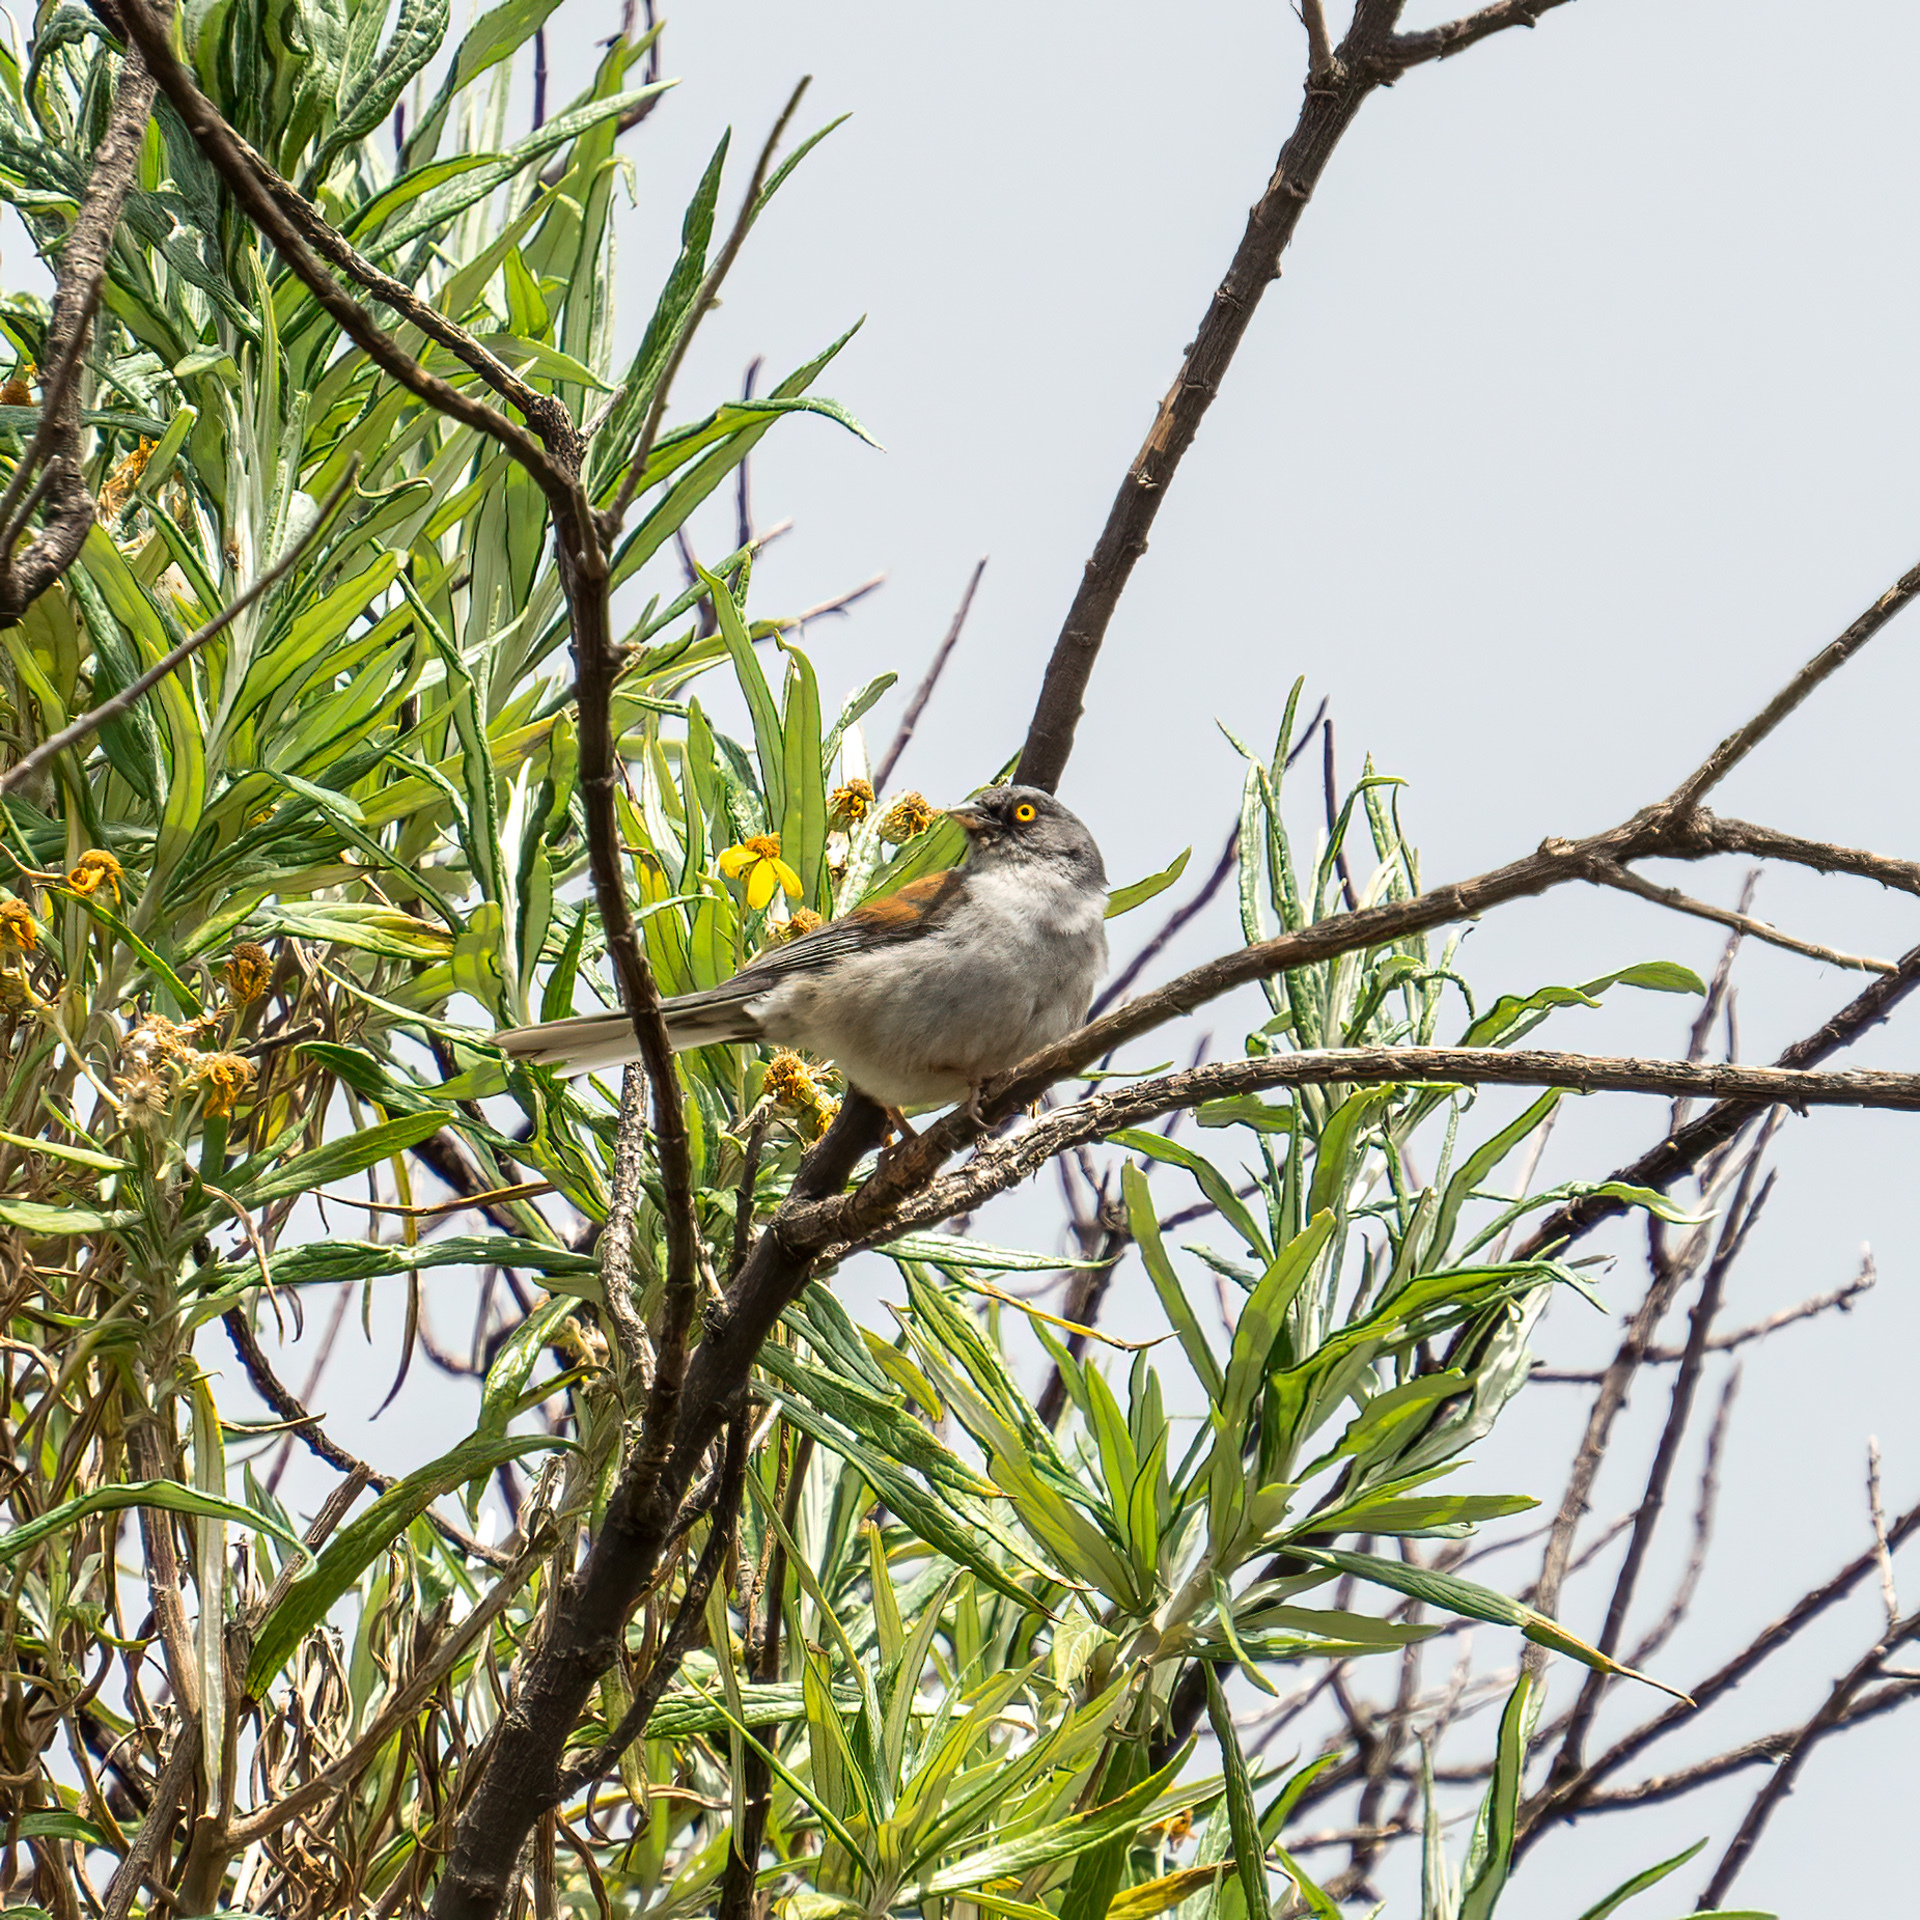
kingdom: Animalia
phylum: Chordata
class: Aves
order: Passeriformes
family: Passerellidae
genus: Junco
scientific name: Junco phaeonotus
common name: Yellow-eyed junco
